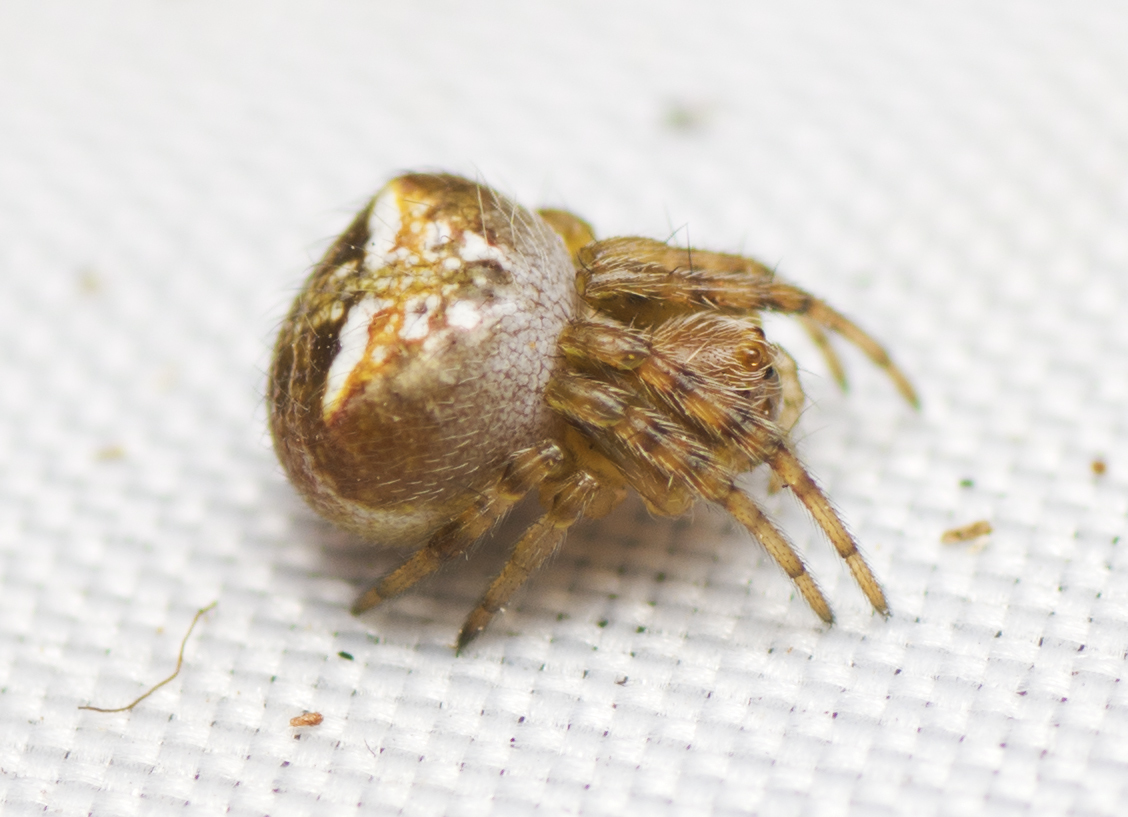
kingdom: Animalia
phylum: Arthropoda
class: Arachnida
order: Araneae
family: Araneidae
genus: Araneus
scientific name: Araneus albotriangulus
